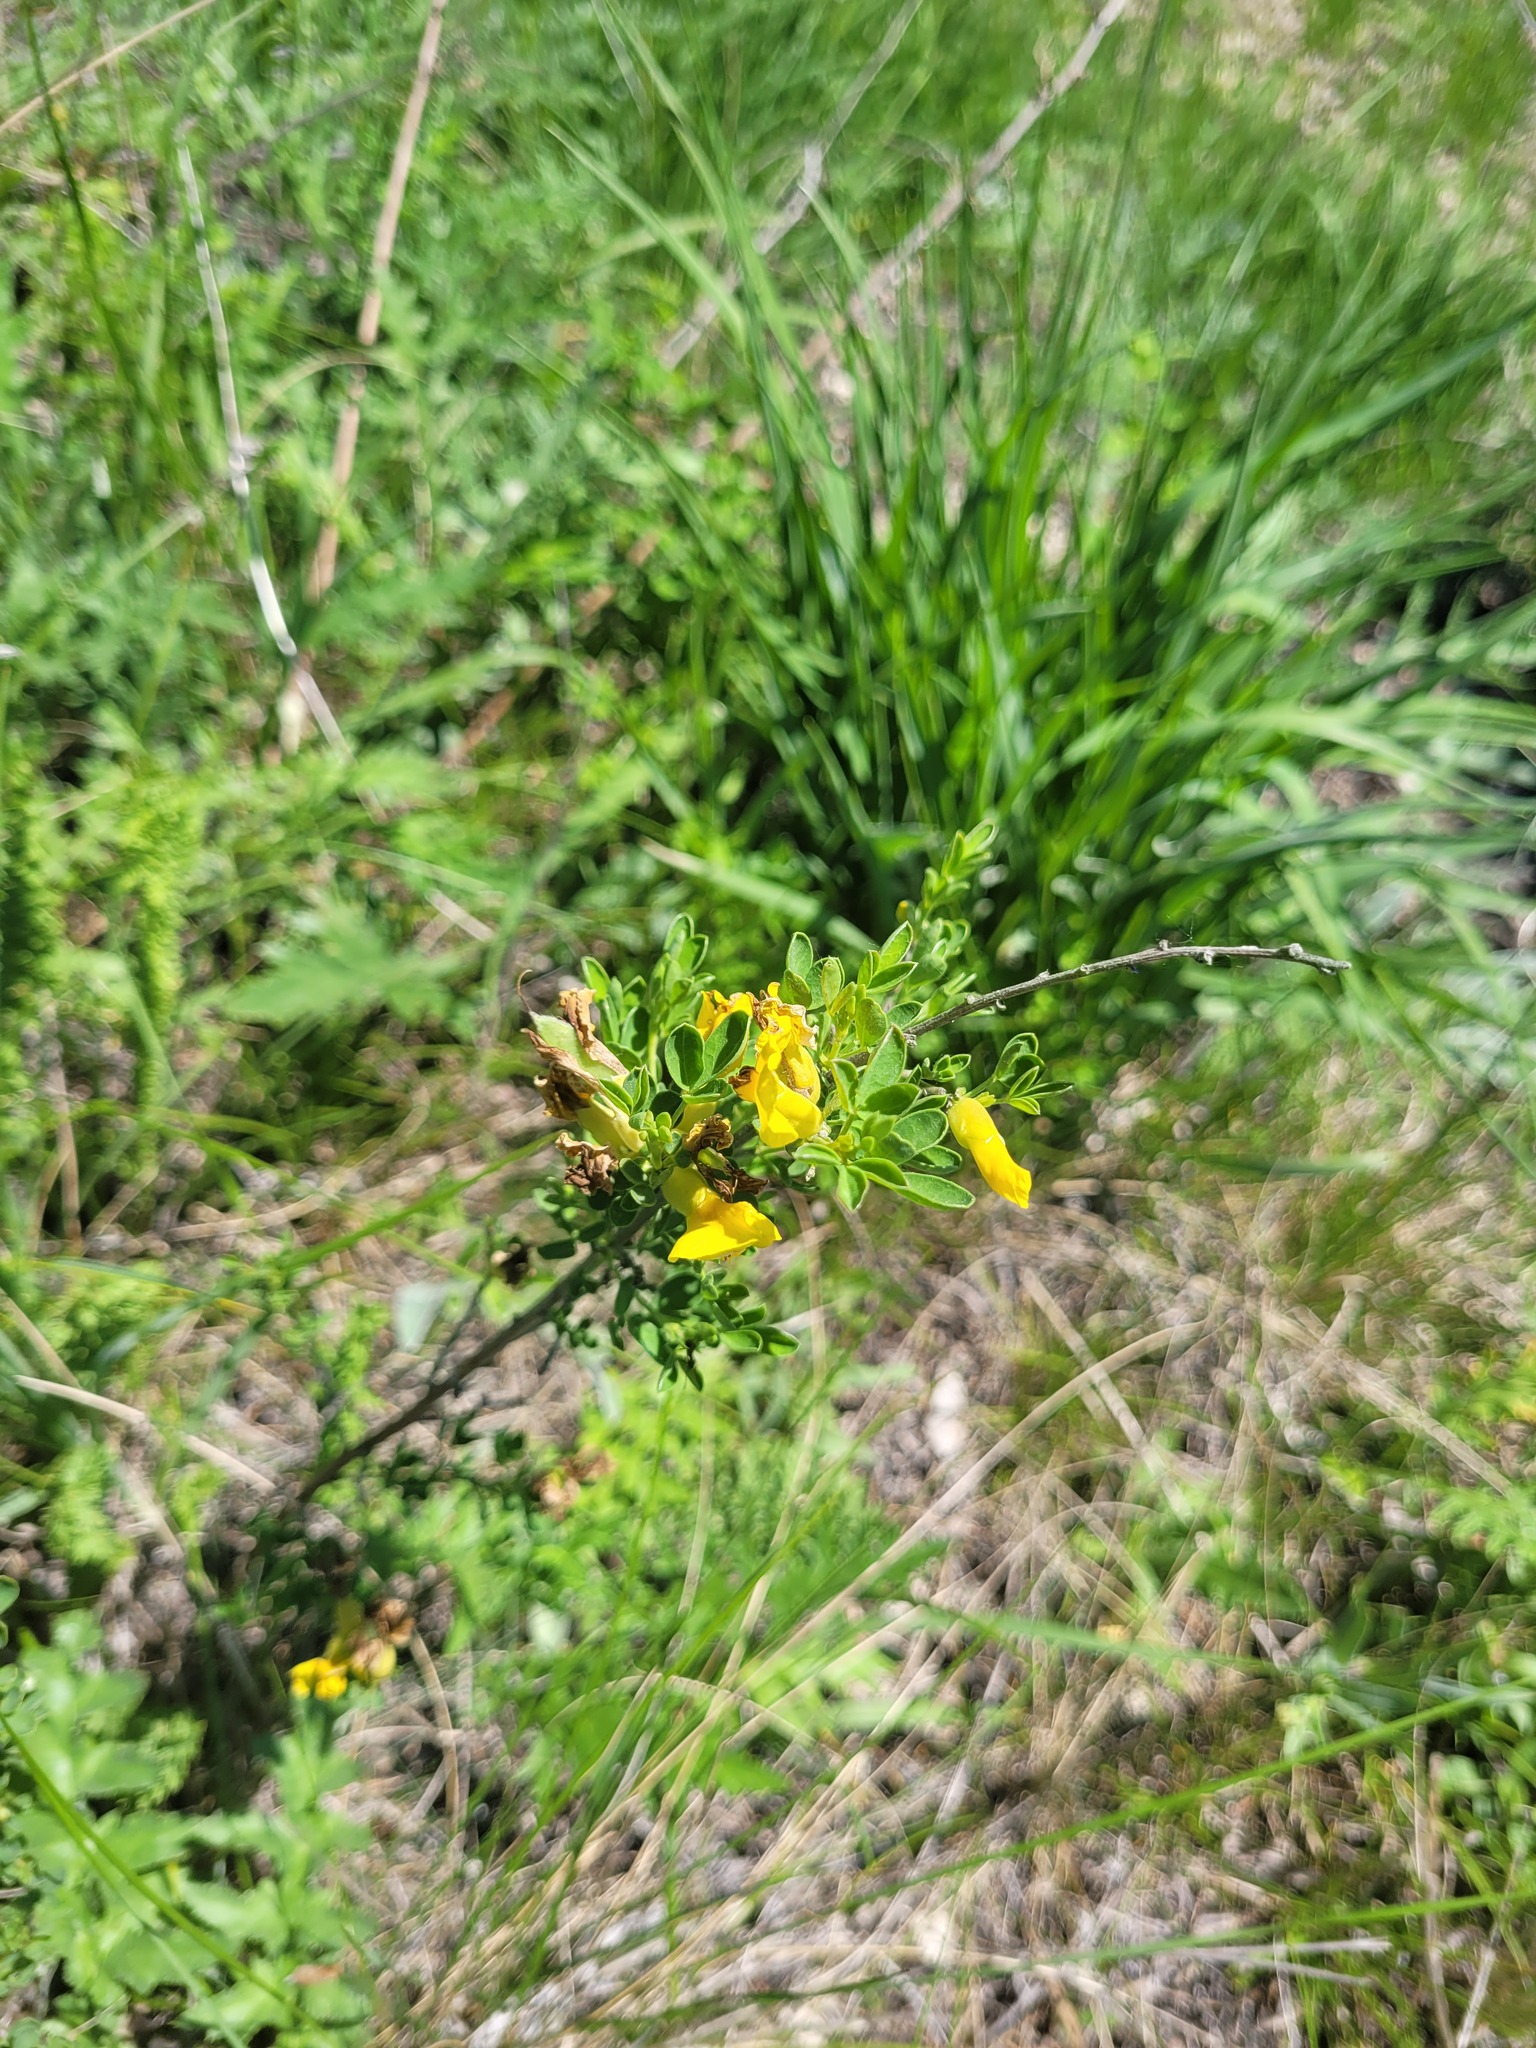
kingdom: Plantae
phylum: Tracheophyta
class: Magnoliopsida
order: Fabales
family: Fabaceae
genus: Chamaecytisus
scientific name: Chamaecytisus ruthenicus
